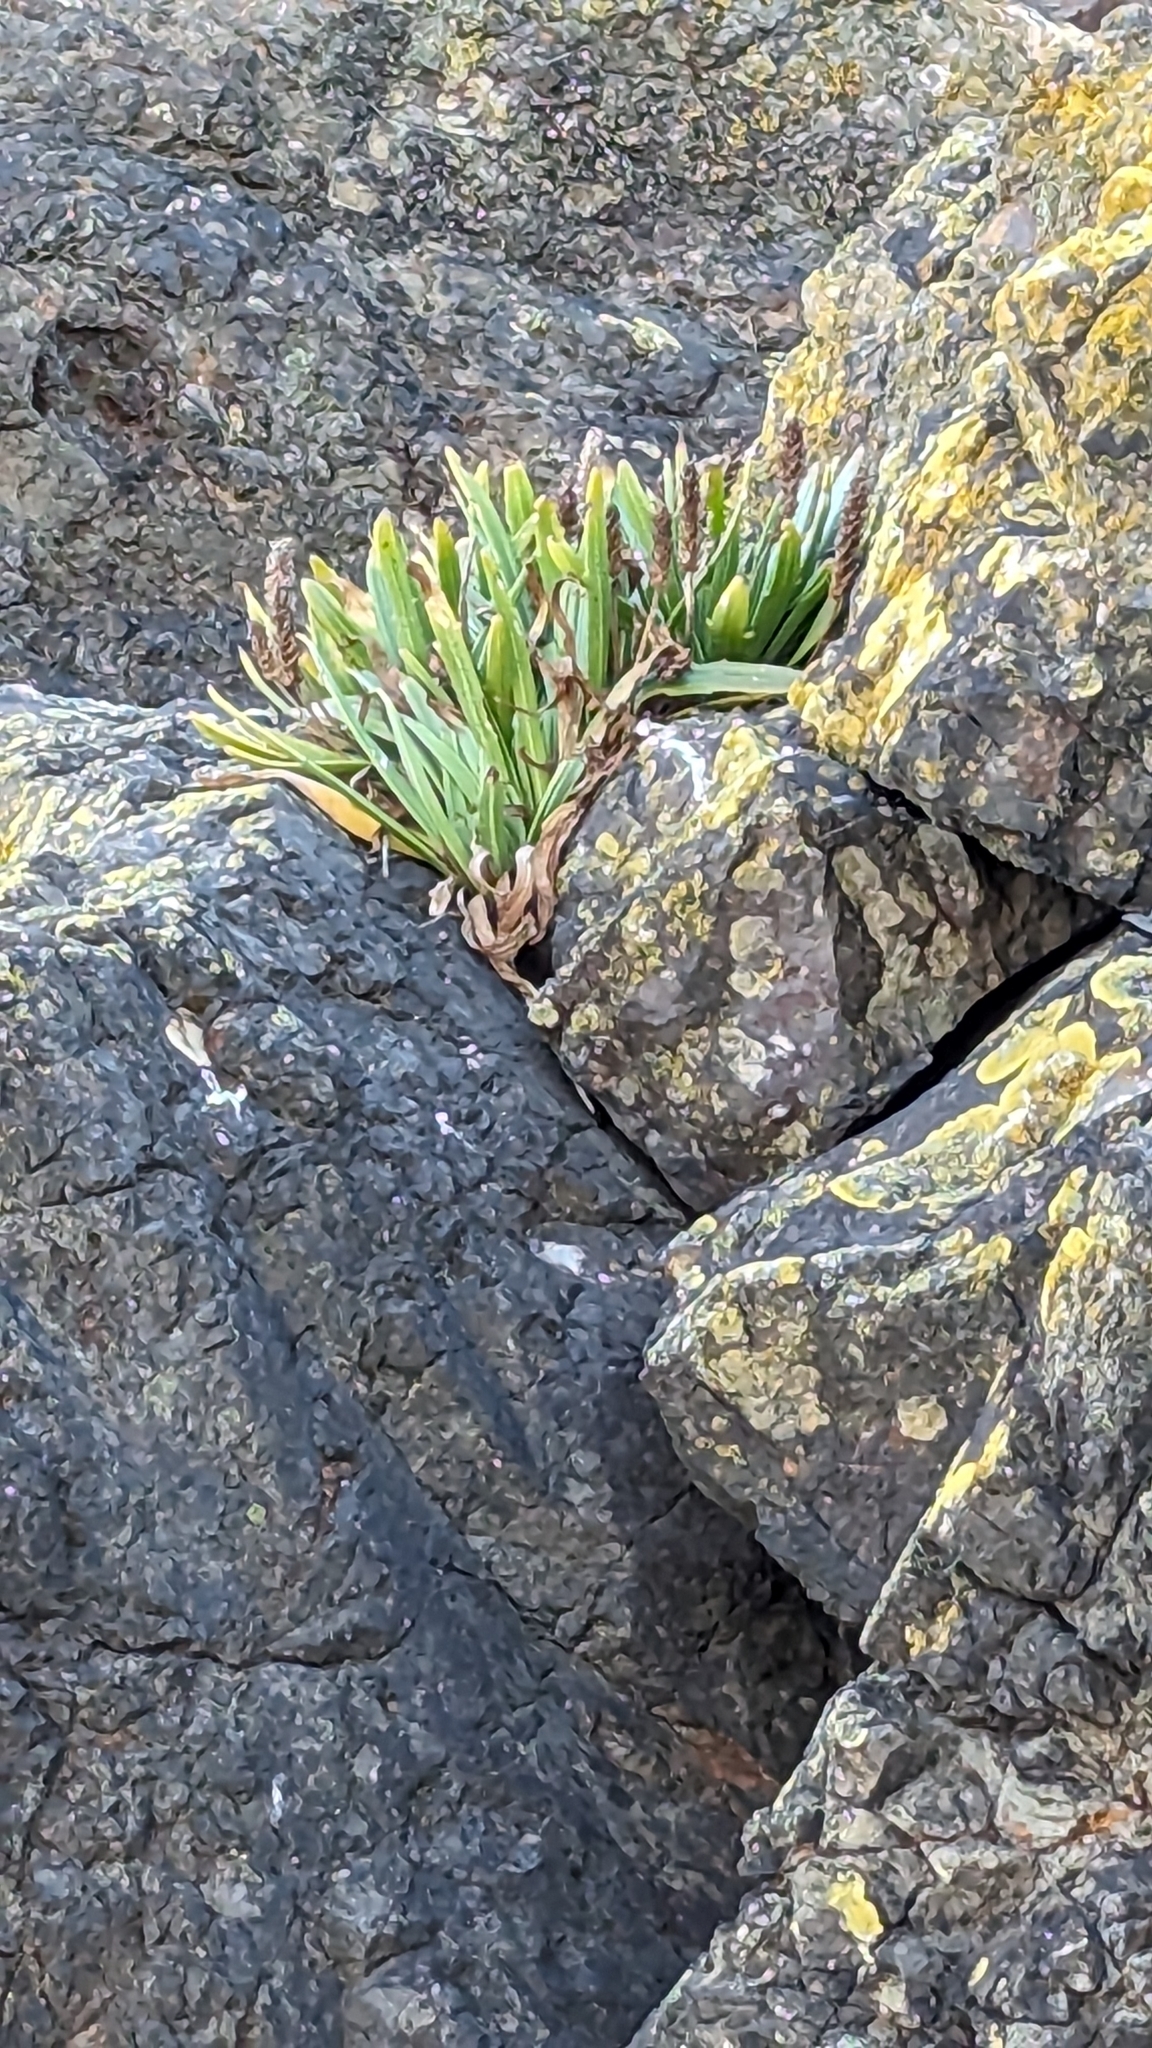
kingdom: Plantae
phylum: Tracheophyta
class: Magnoliopsida
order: Lamiales
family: Plantaginaceae
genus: Plantago
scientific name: Plantago maritima
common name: Sea plantain
